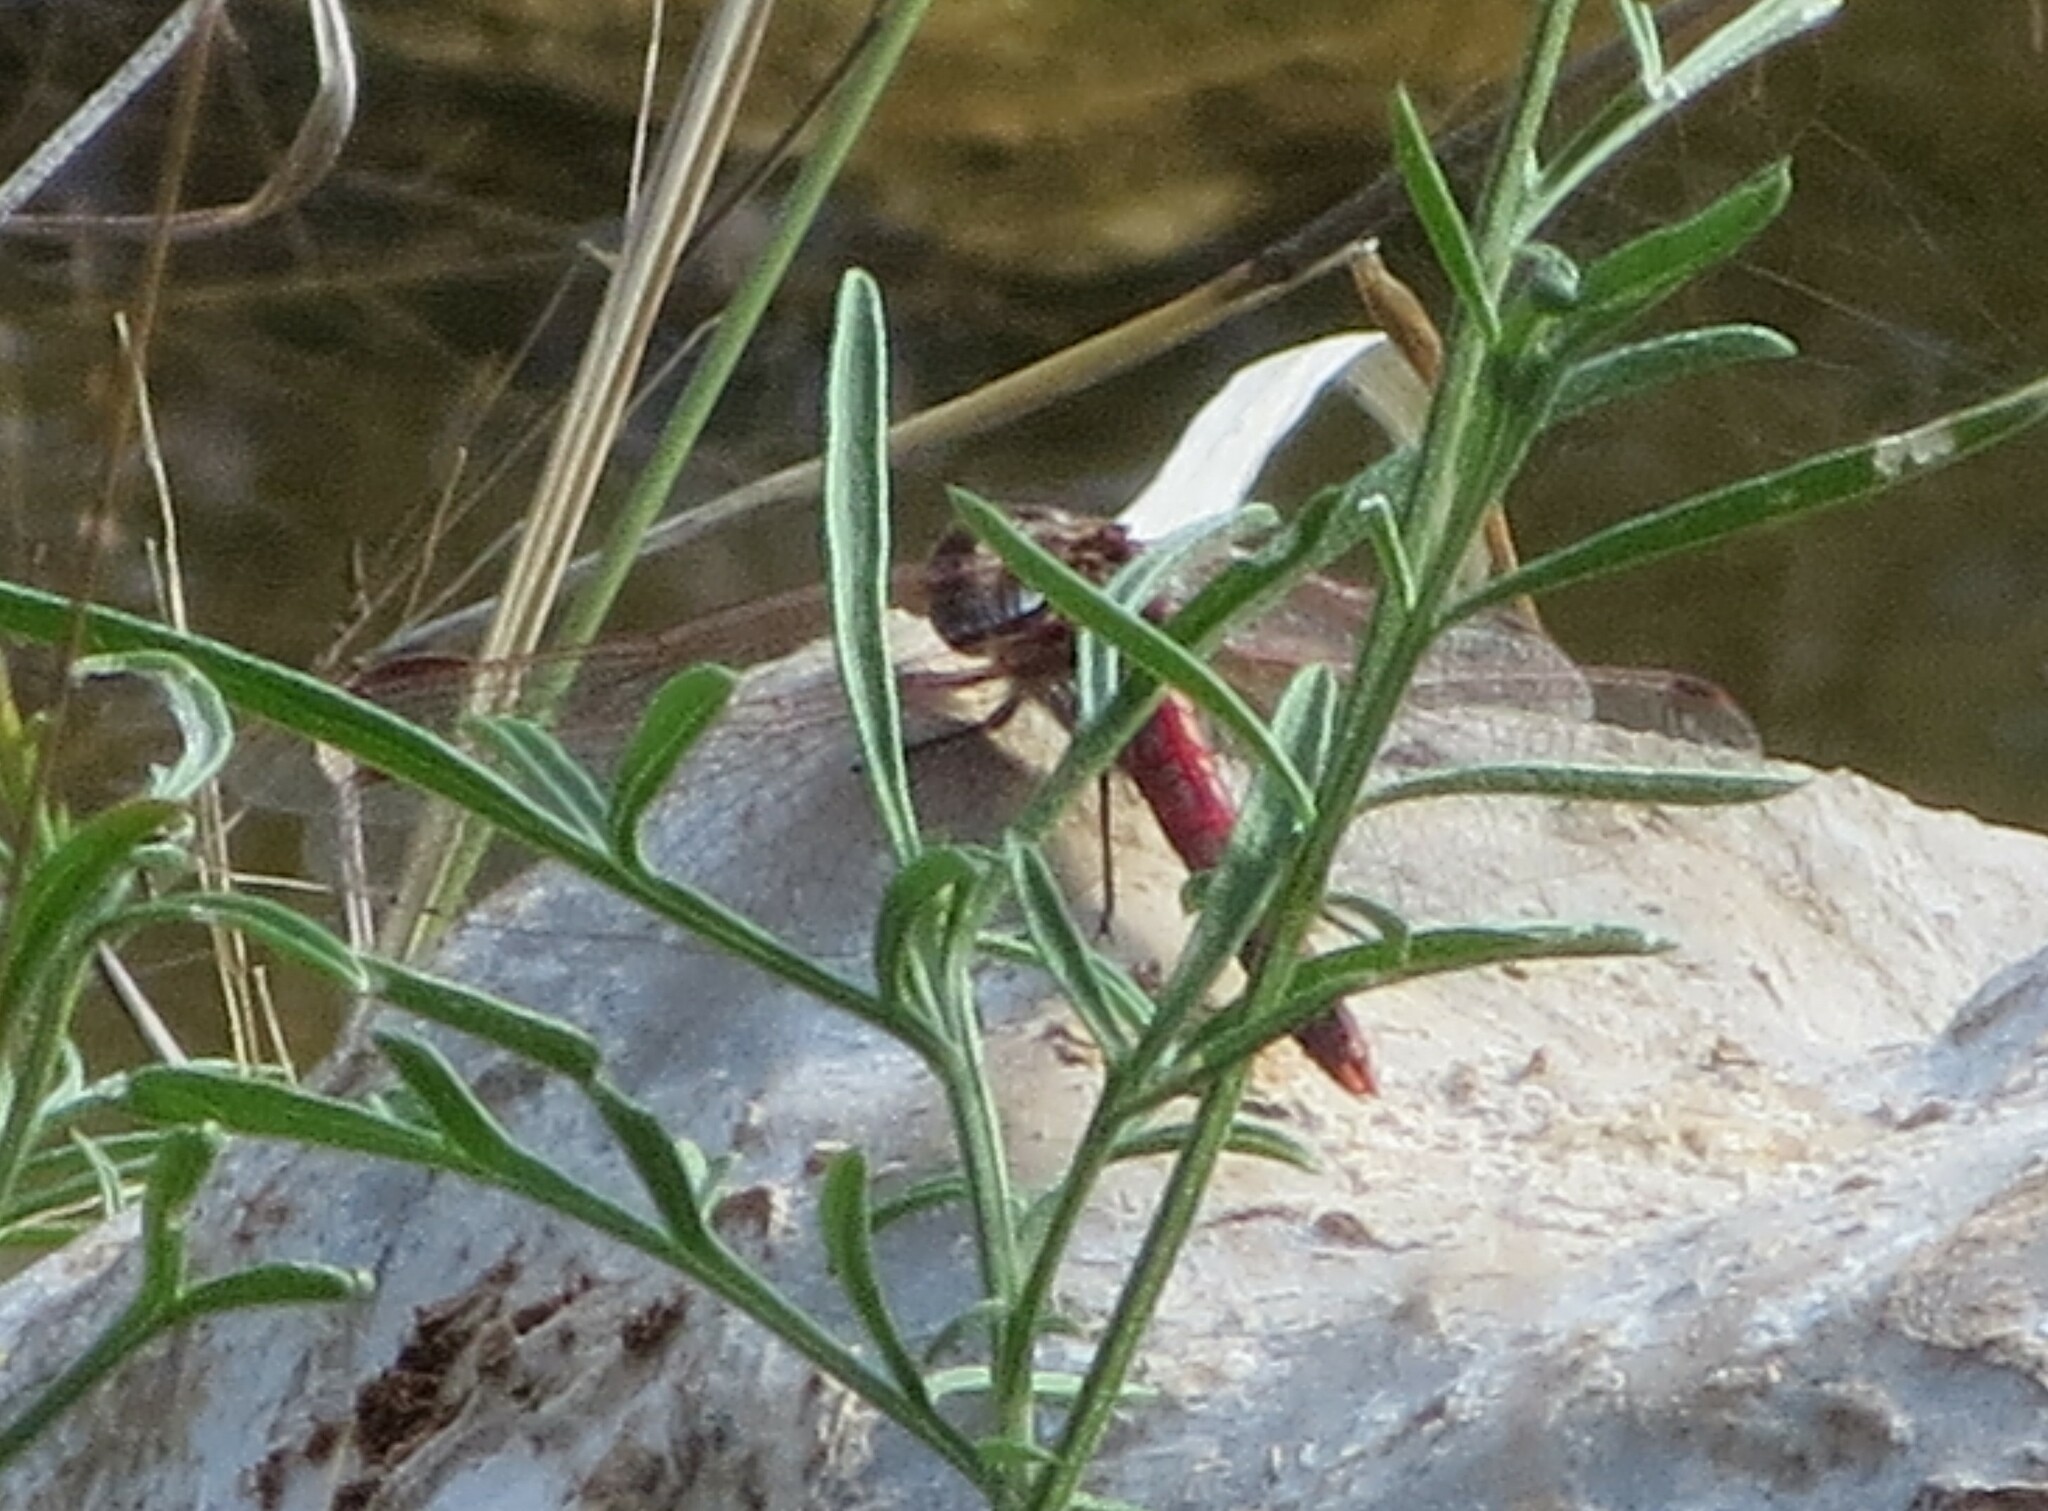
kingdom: Animalia
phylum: Arthropoda
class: Insecta
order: Odonata
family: Libellulidae
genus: Sympetrum
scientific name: Sympetrum corruptum
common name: Variegated meadowhawk
